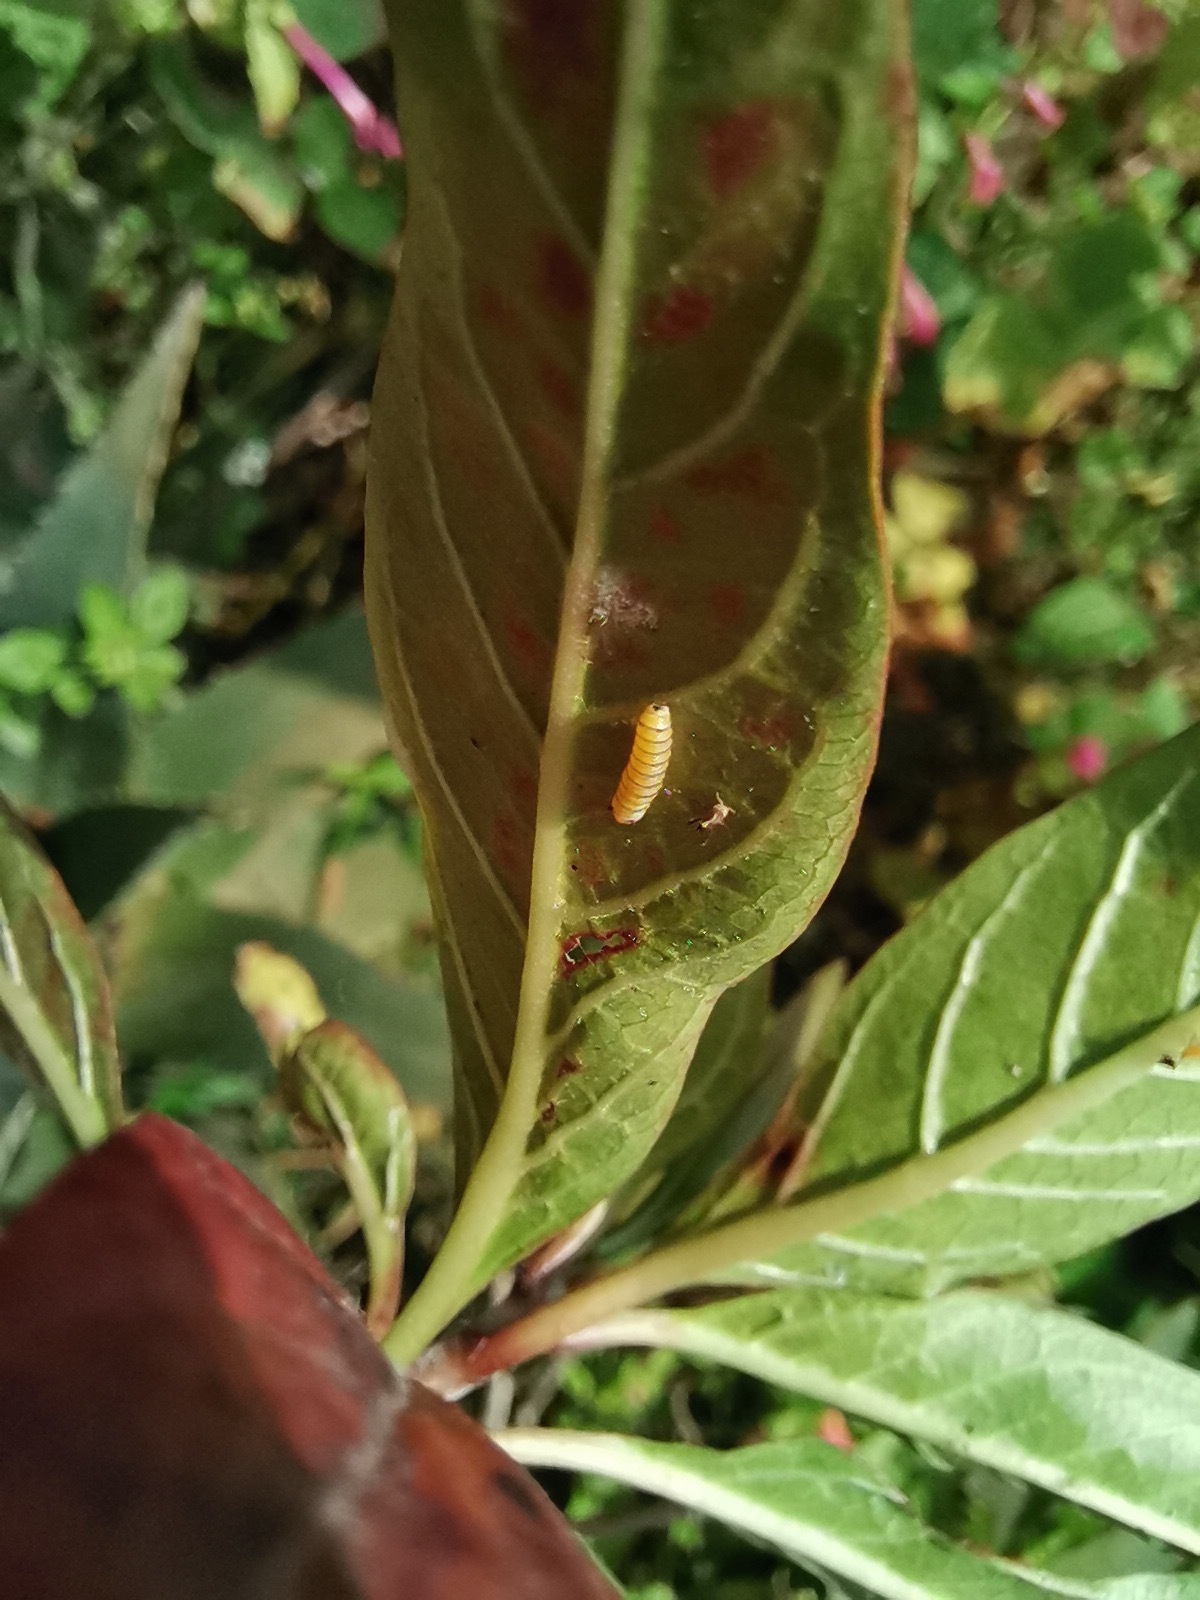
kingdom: Animalia
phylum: Arthropoda
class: Insecta
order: Lepidoptera
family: Nymphalidae
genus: Danaus
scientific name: Danaus plexippus
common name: Monarch
